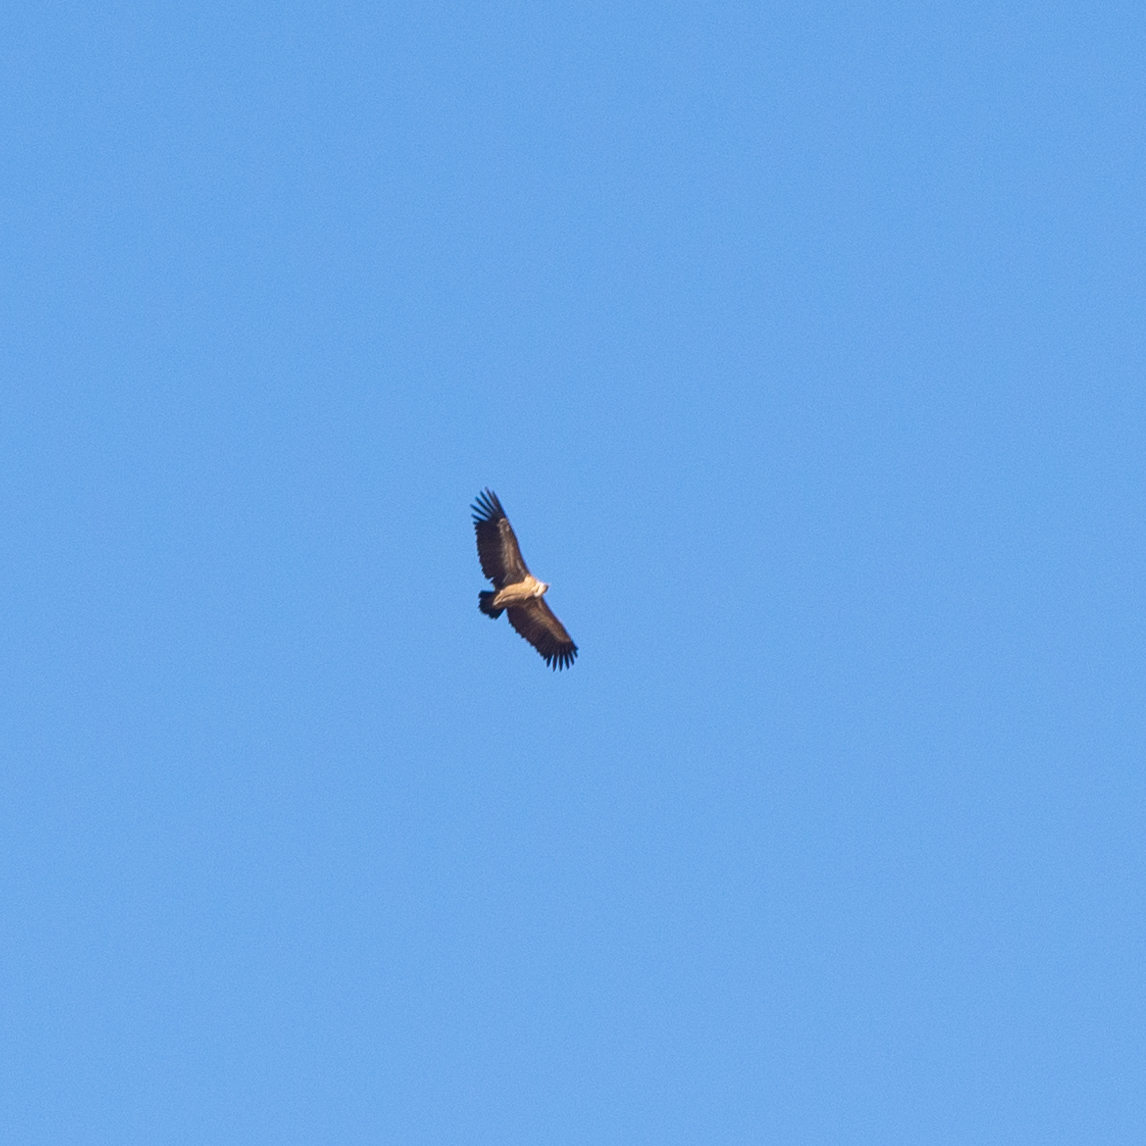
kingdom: Animalia
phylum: Chordata
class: Aves
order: Accipitriformes
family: Accipitridae
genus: Gyps
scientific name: Gyps fulvus
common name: Griffon vulture
